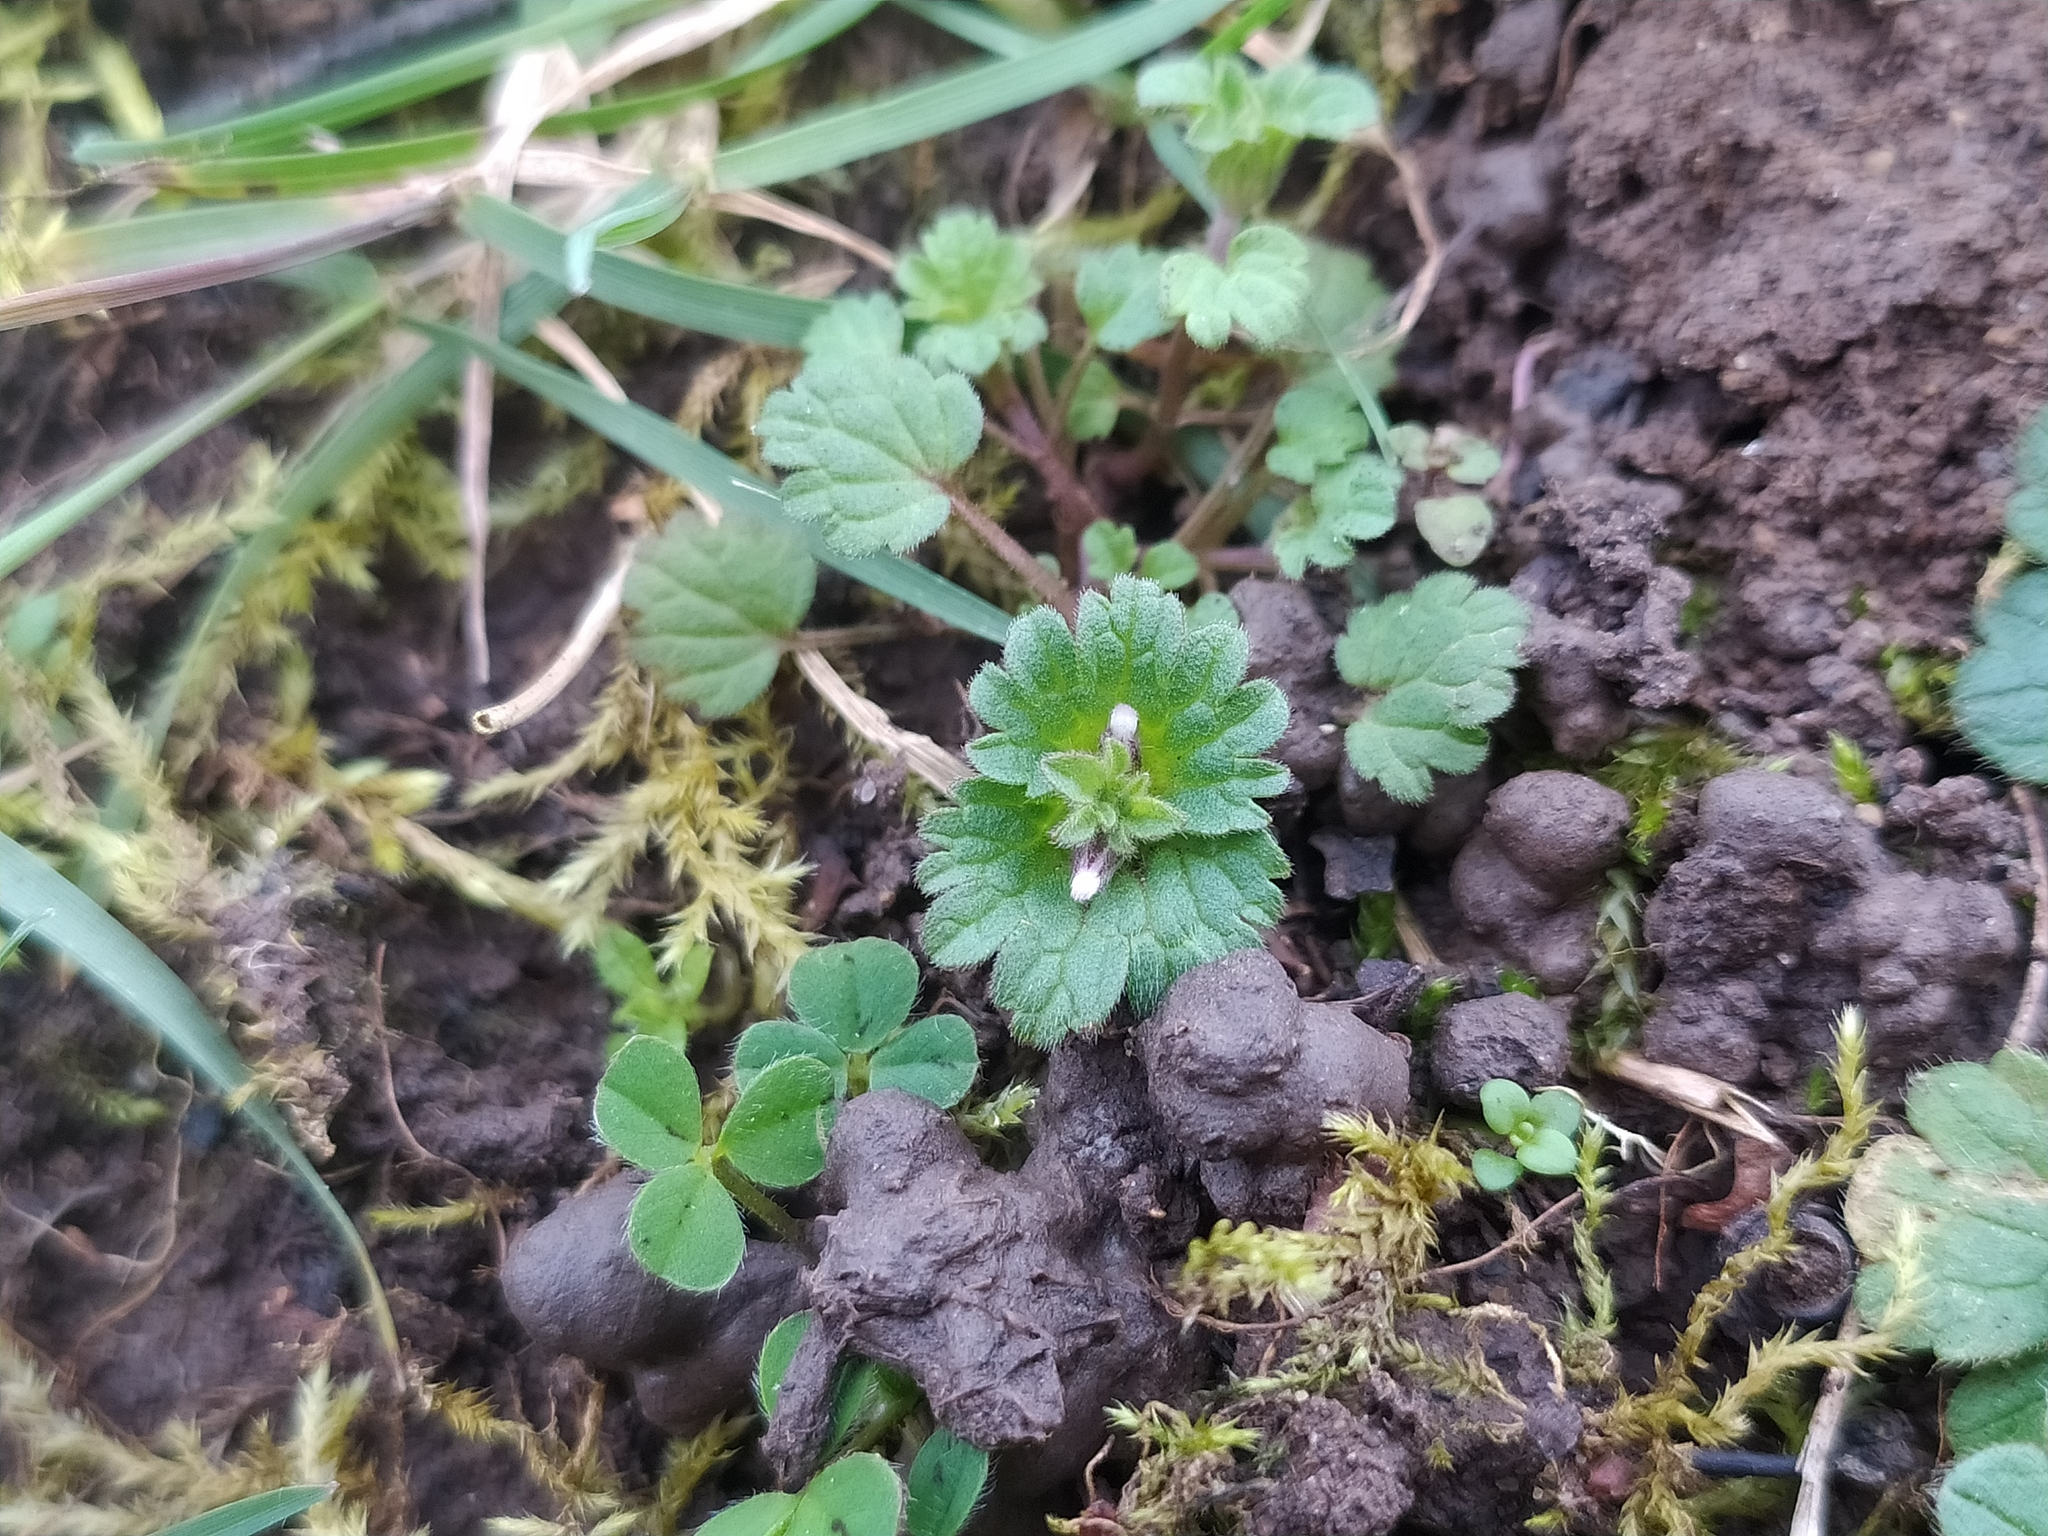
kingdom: Plantae
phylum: Tracheophyta
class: Magnoliopsida
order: Lamiales
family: Lamiaceae
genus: Lamium
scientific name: Lamium amplexicaule
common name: Henbit dead-nettle
